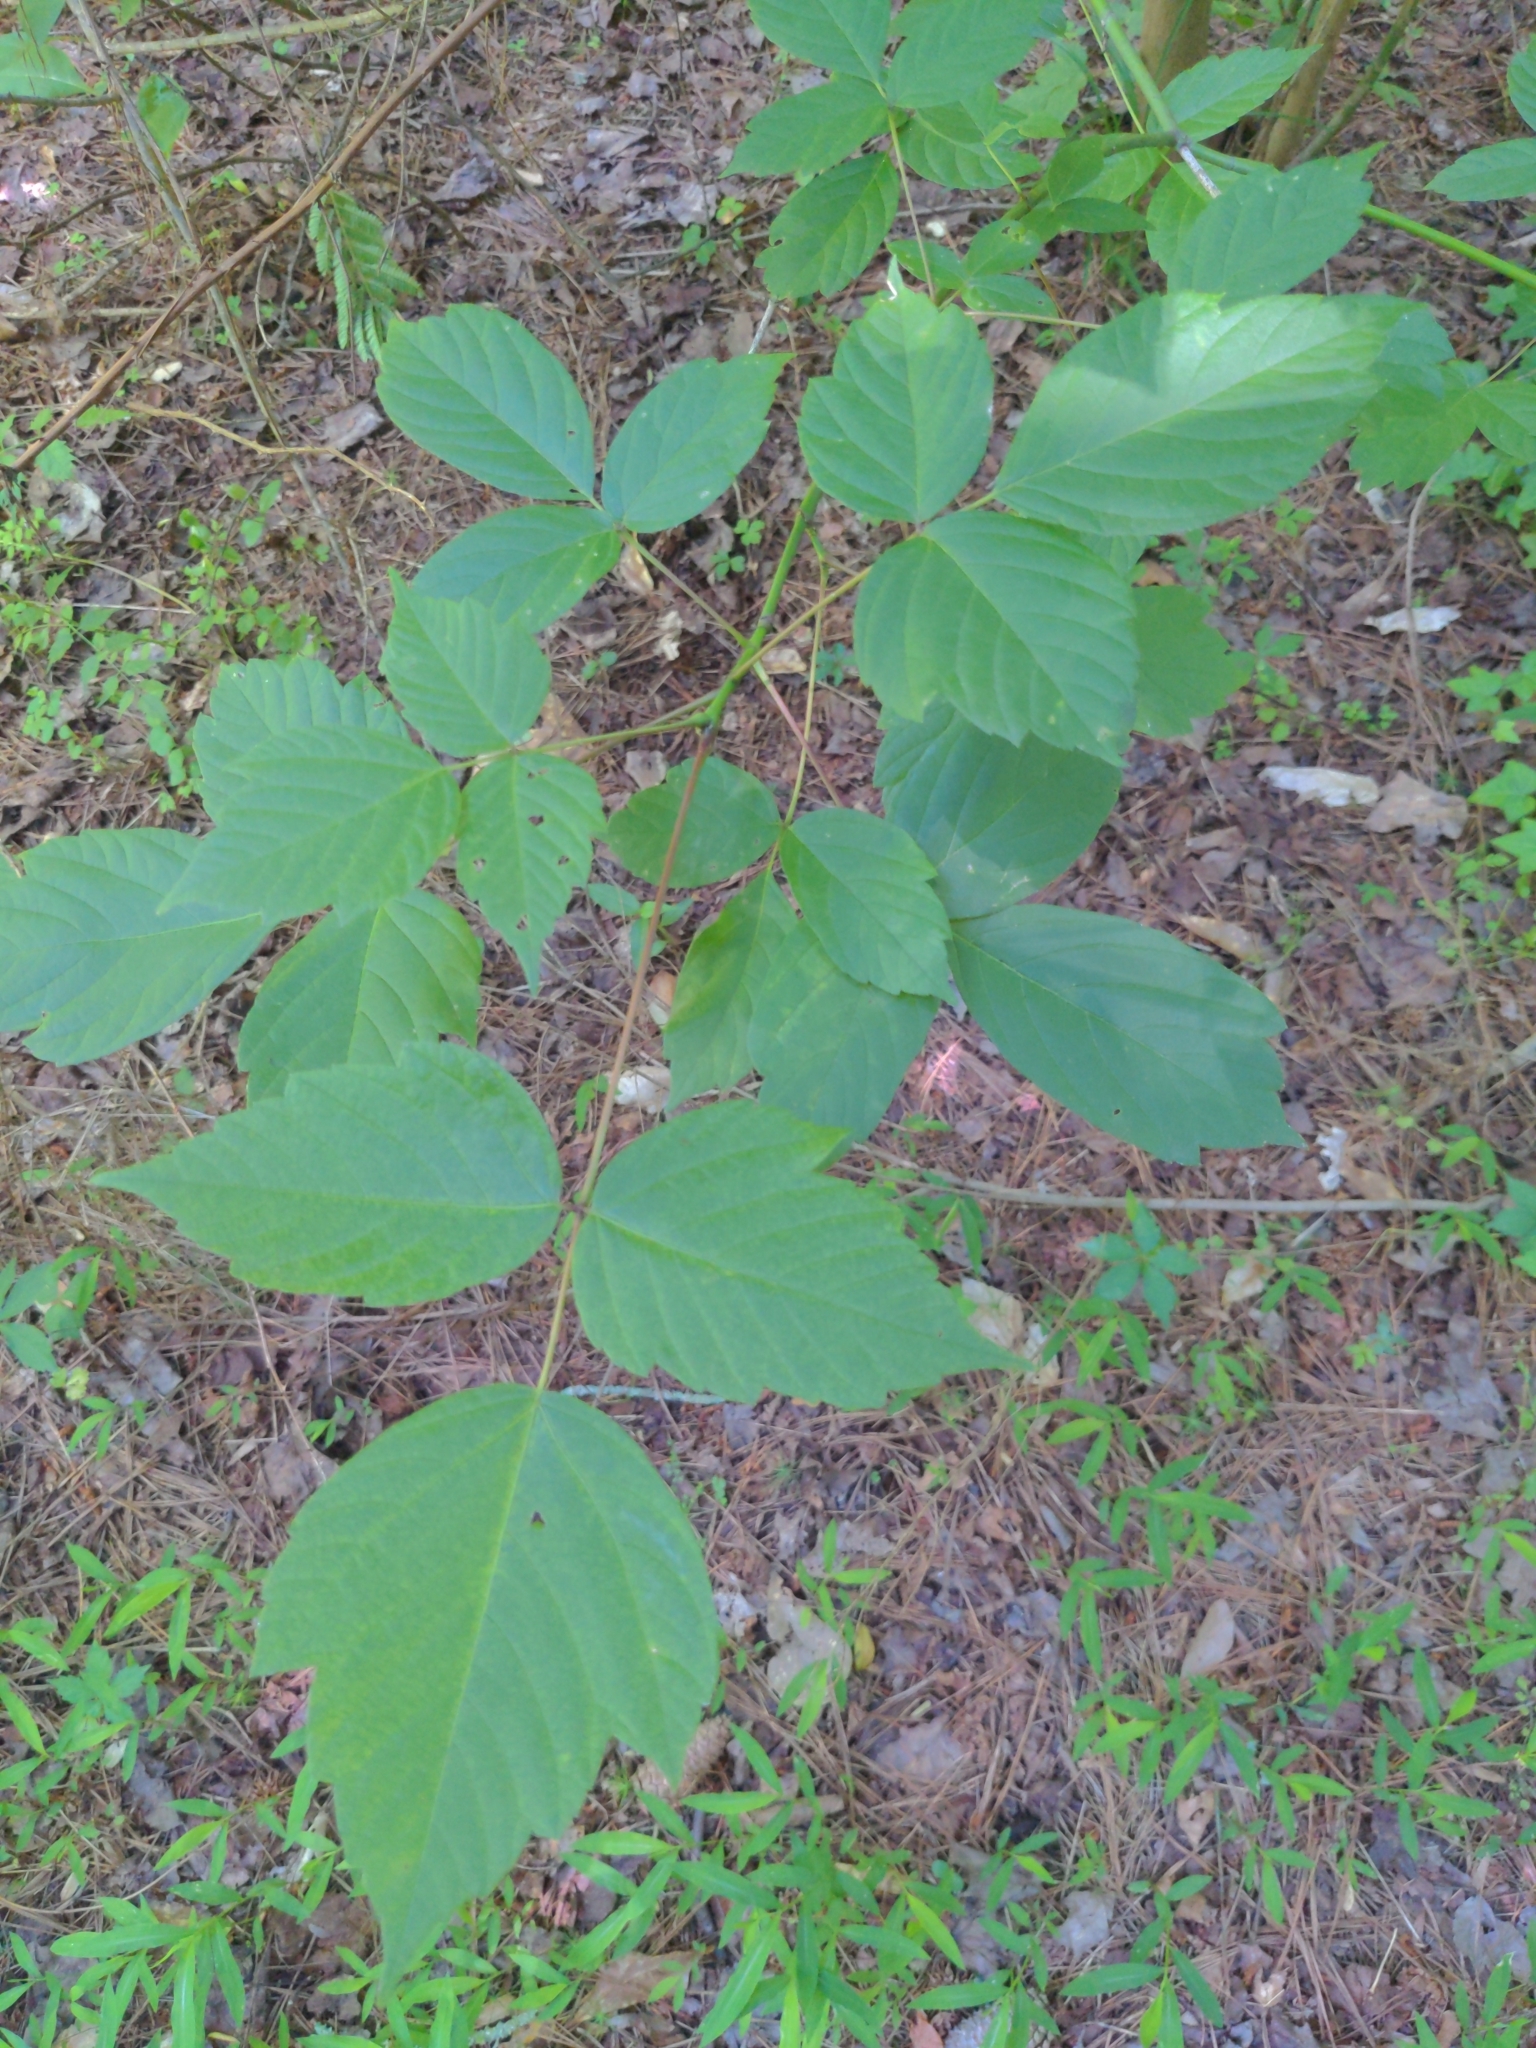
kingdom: Plantae
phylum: Tracheophyta
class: Magnoliopsida
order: Sapindales
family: Sapindaceae
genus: Acer
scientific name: Acer negundo
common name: Ashleaf maple
